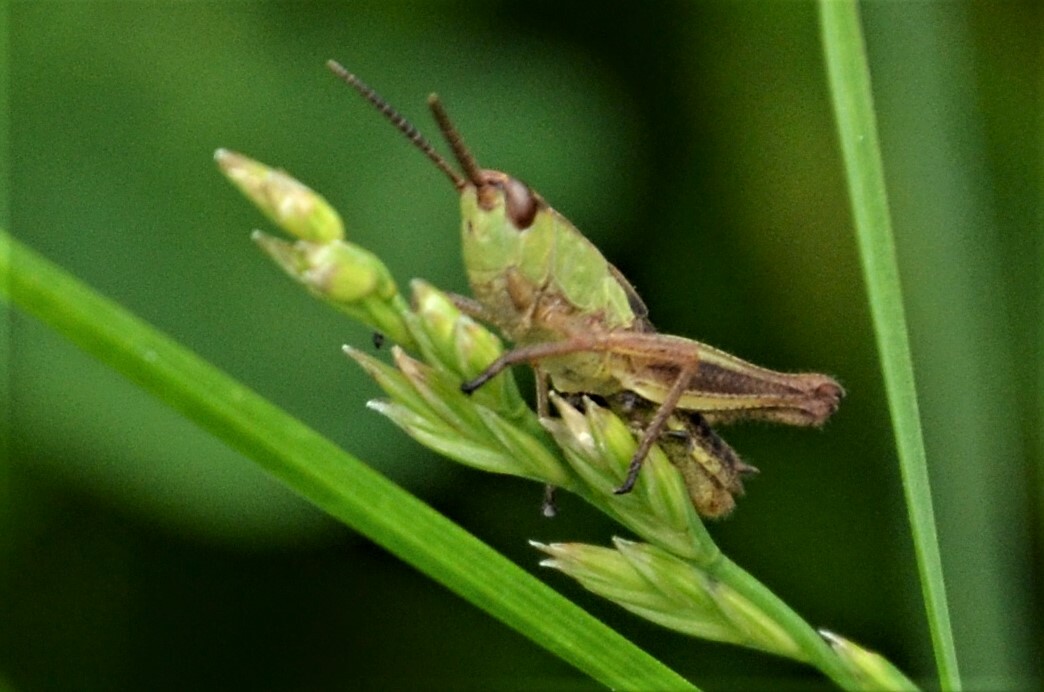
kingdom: Animalia
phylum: Arthropoda
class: Insecta
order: Orthoptera
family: Acrididae
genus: Pseudochorthippus
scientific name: Pseudochorthippus parallelus
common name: Meadow grasshopper
